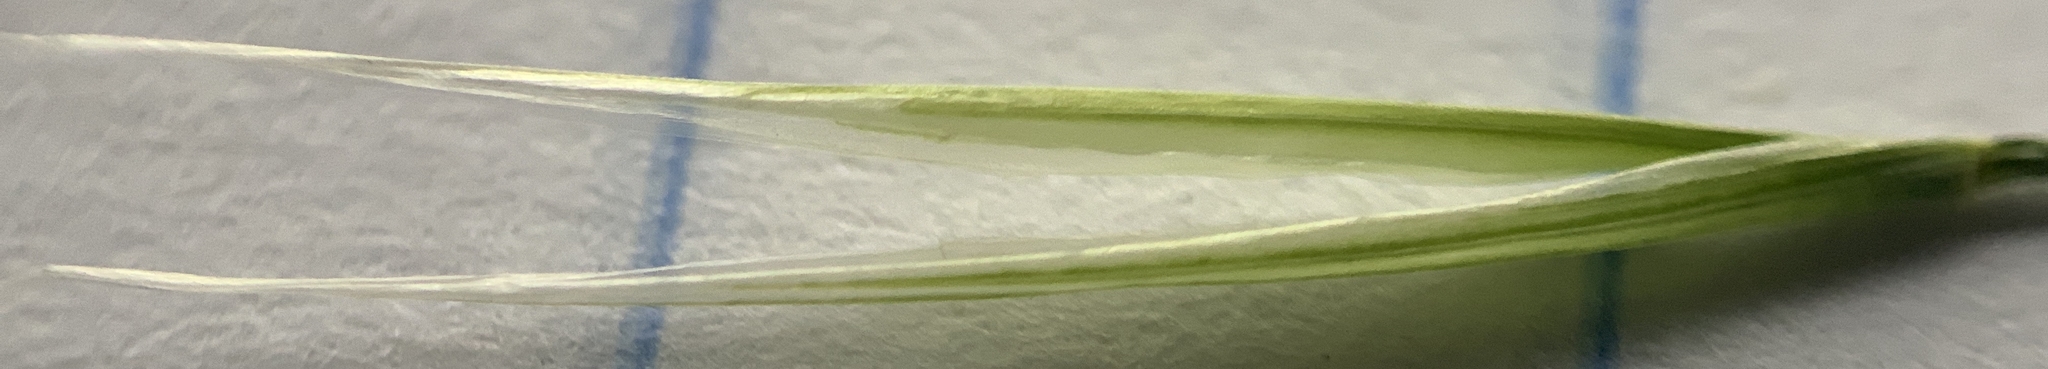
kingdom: Plantae
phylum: Tracheophyta
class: Liliopsida
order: Poales
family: Poaceae
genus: Hesperostipa
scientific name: Hesperostipa comata
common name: Needle-and-thread grass
